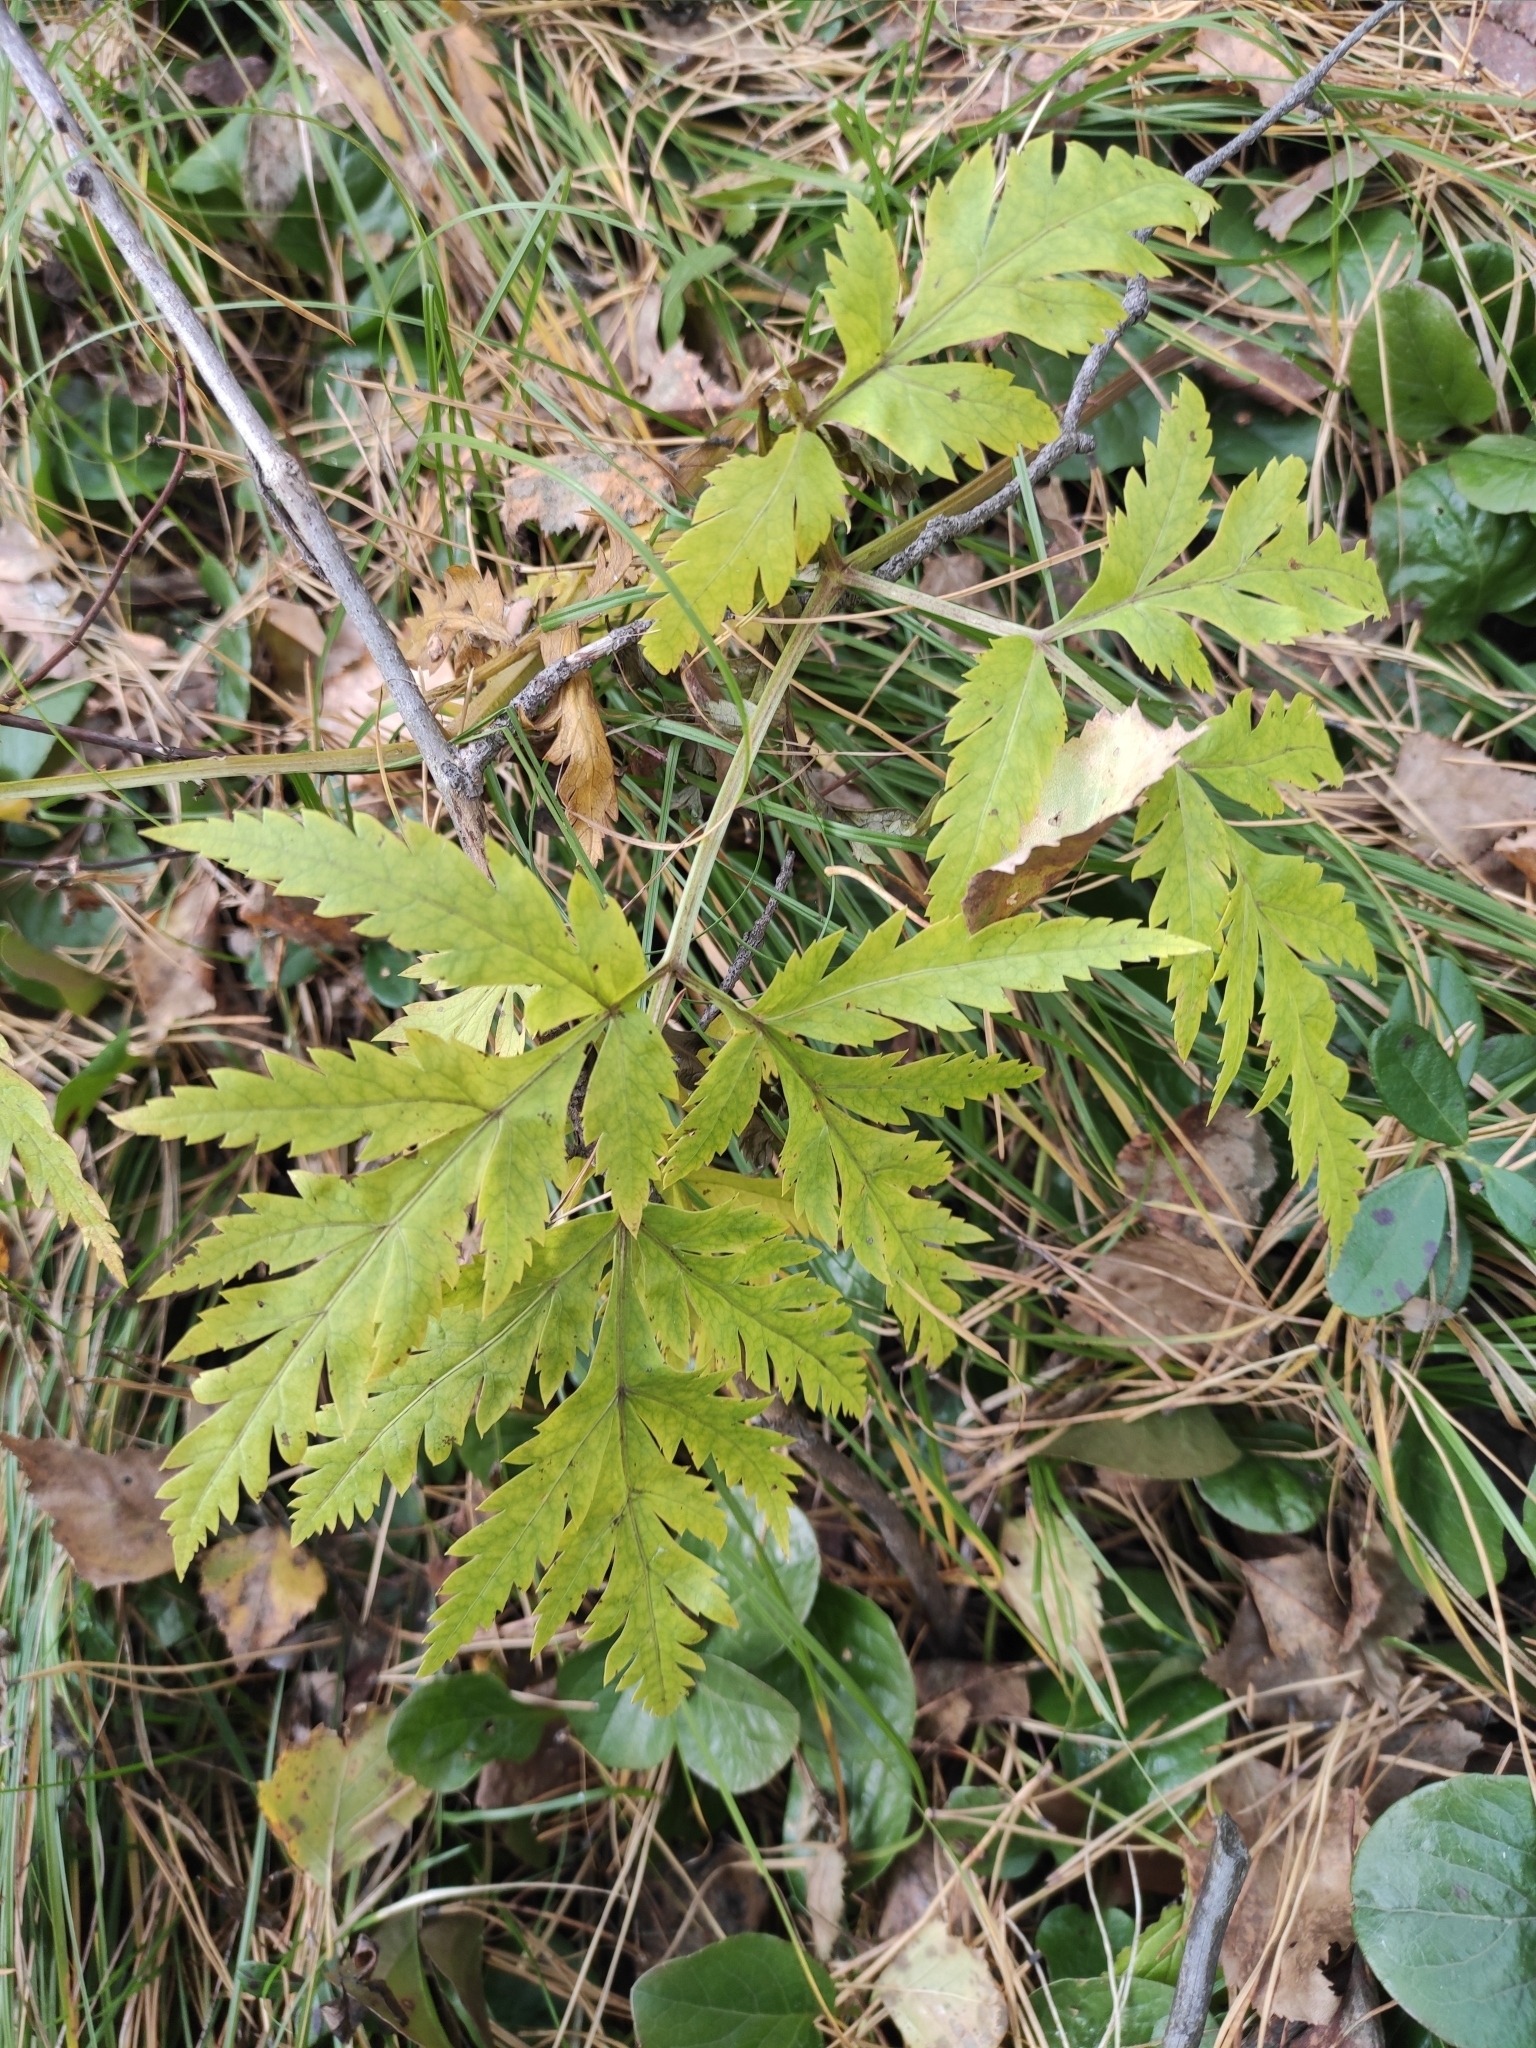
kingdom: Plantae
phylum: Tracheophyta
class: Magnoliopsida
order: Apiales
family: Apiaceae
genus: Pleurospermum
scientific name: Pleurospermum uralense
